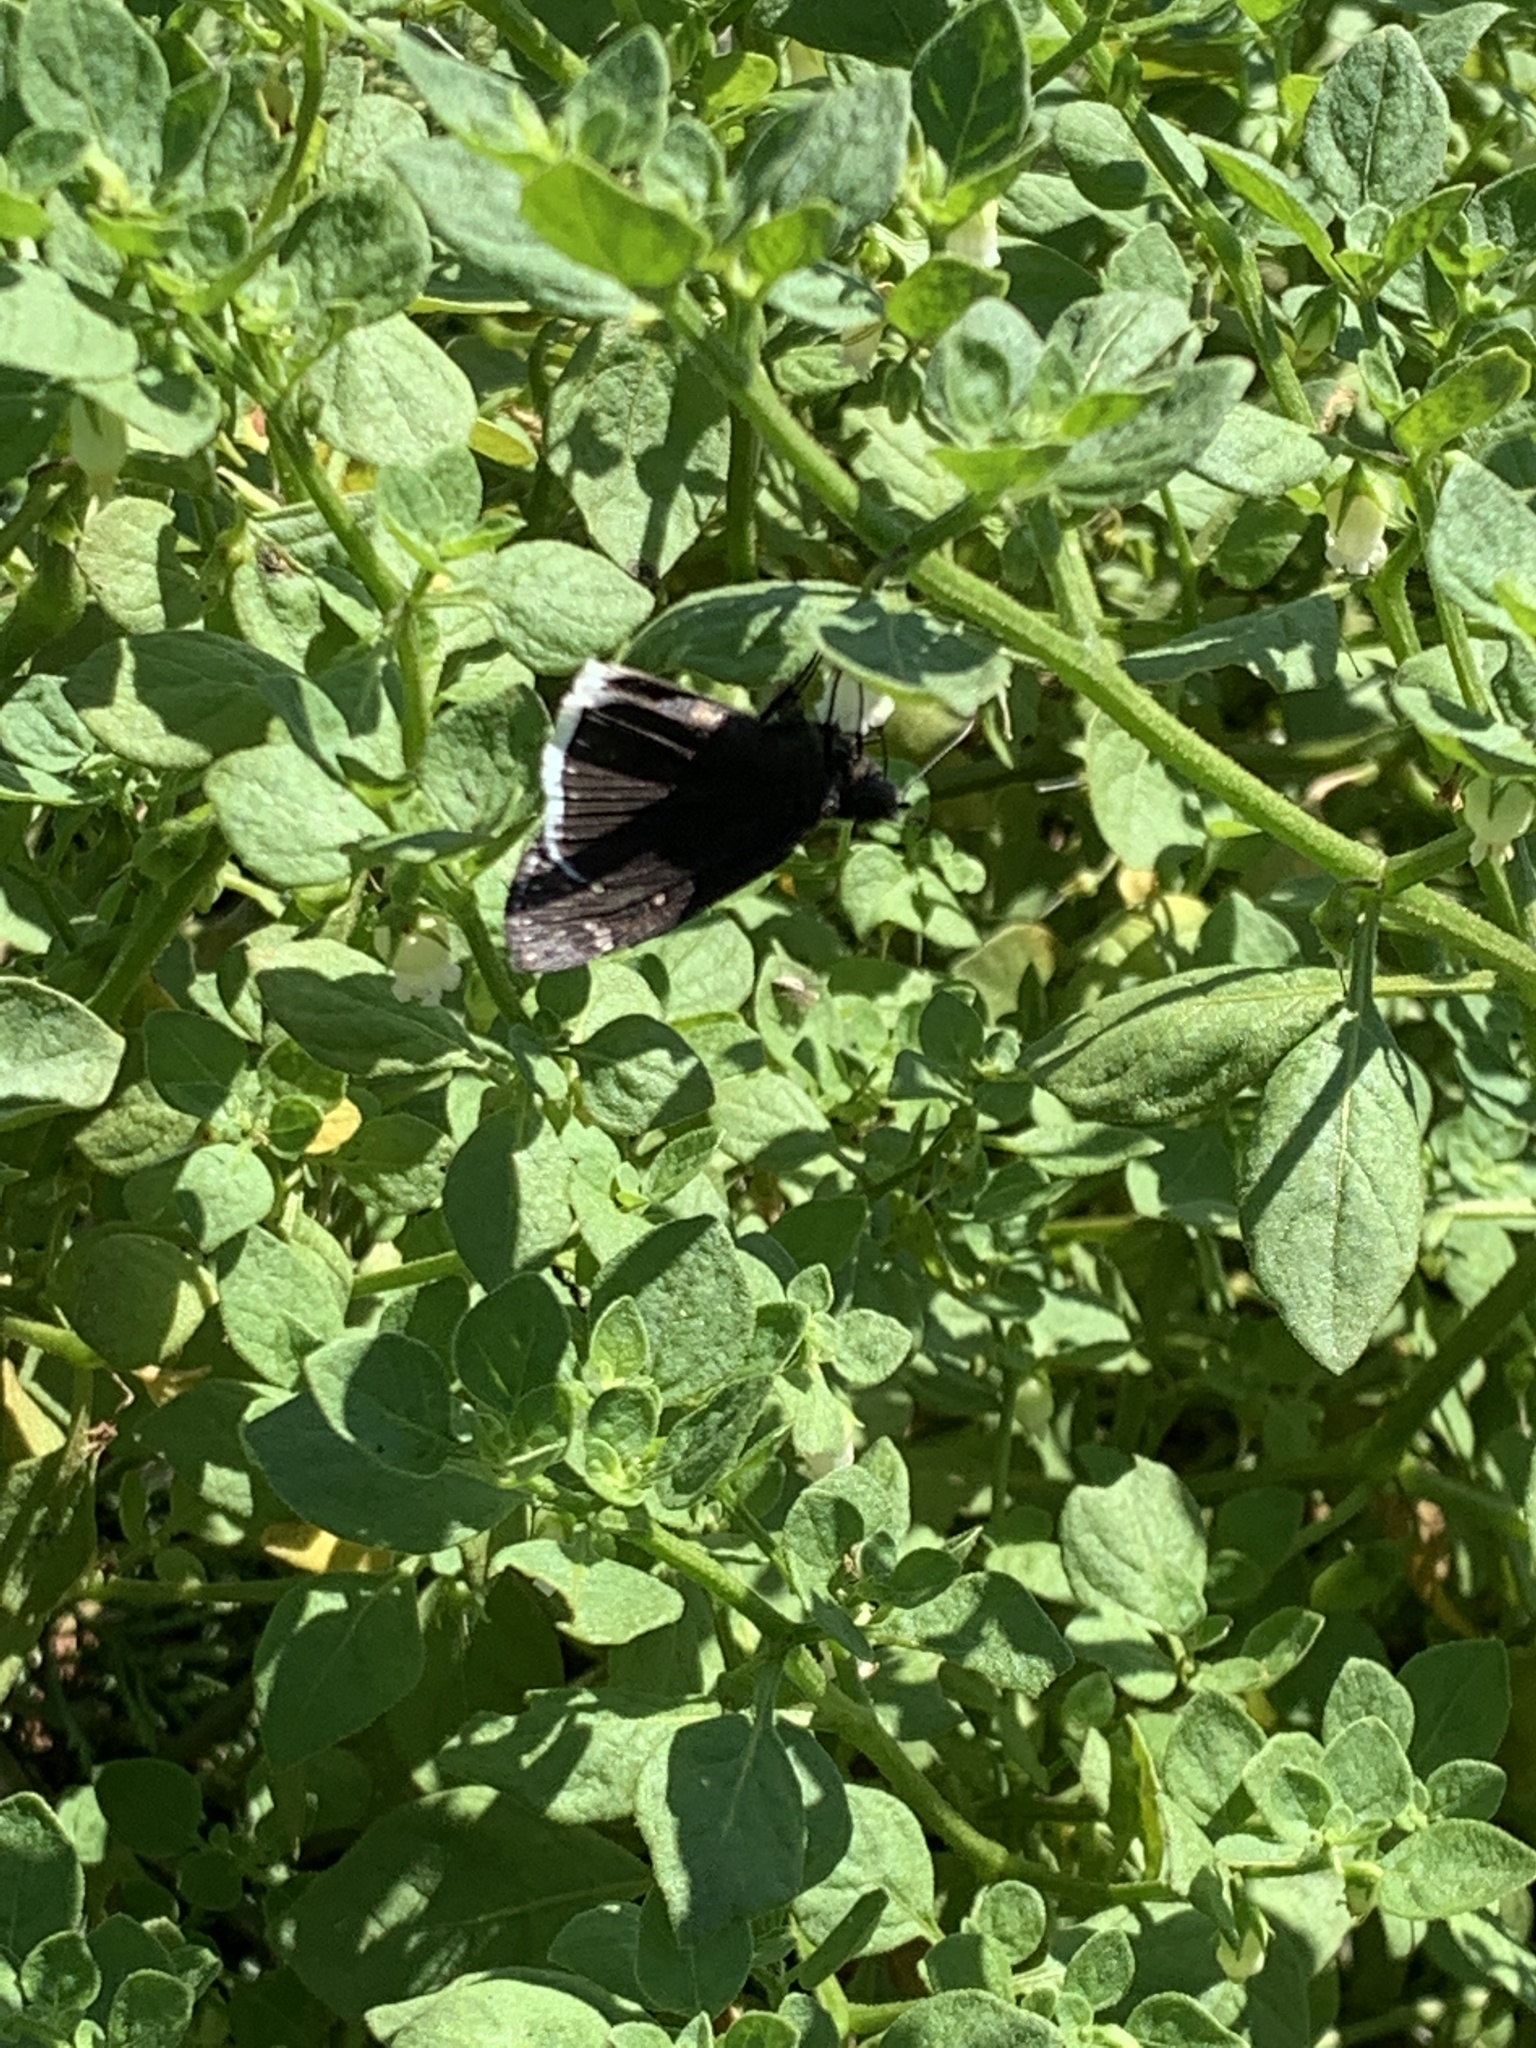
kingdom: Animalia
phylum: Arthropoda
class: Insecta
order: Lepidoptera
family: Hesperiidae
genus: Erynnis
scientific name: Erynnis funeralis
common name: Funereal duskywing
